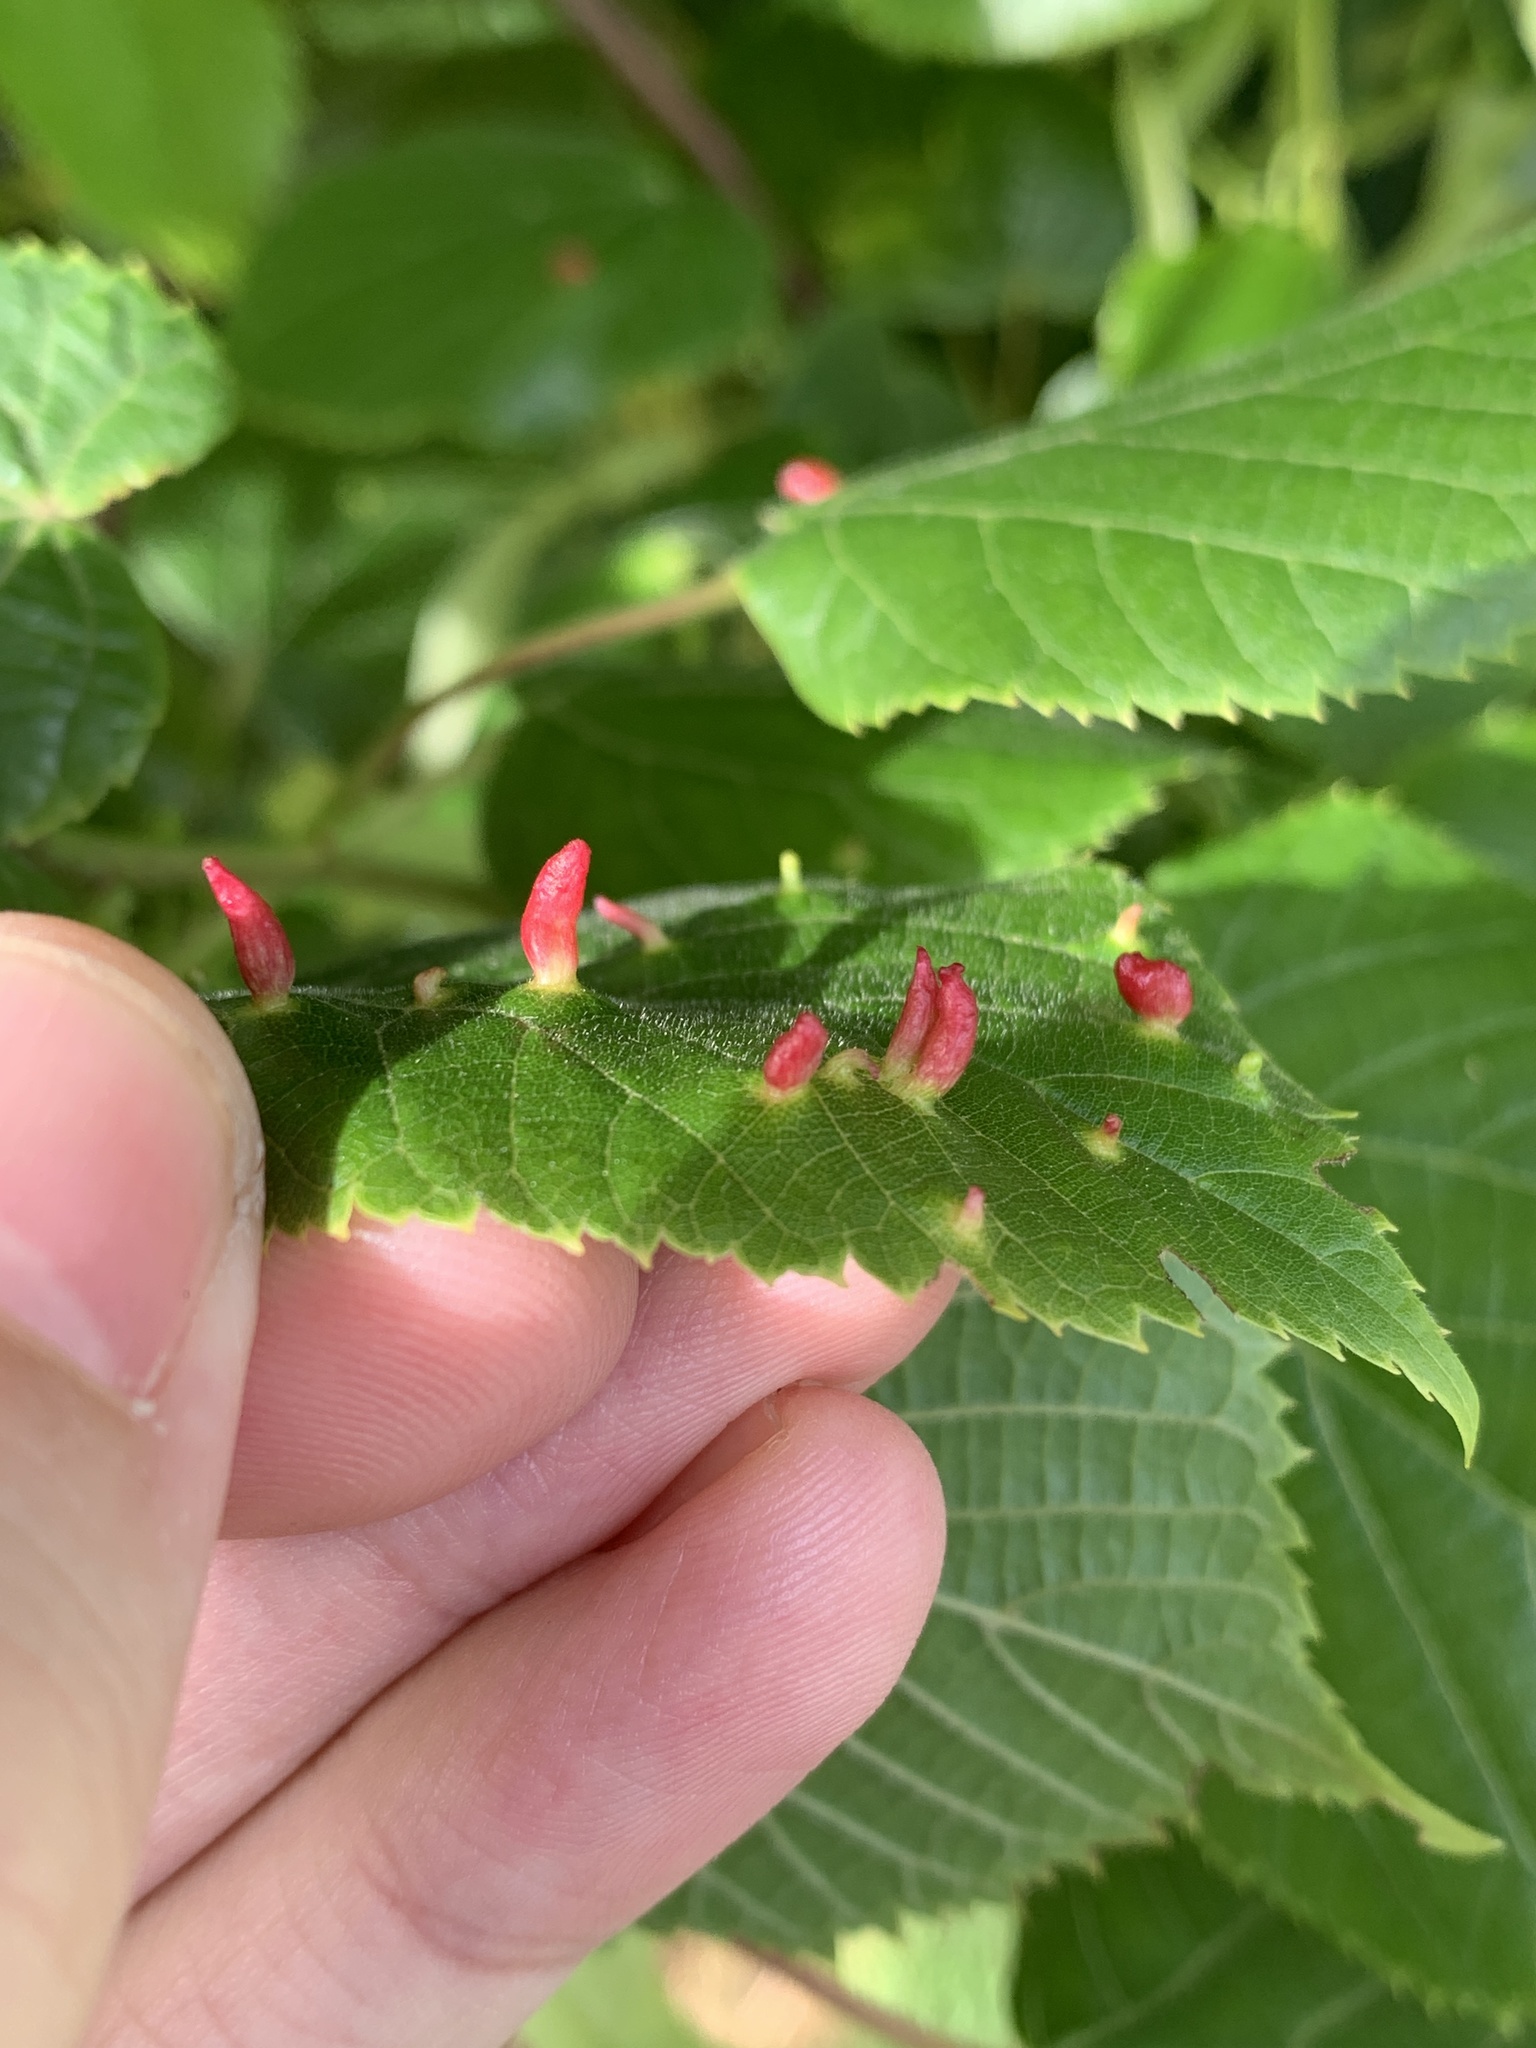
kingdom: Animalia
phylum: Arthropoda
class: Arachnida
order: Trombidiformes
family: Eriophyidae
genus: Eriophyes
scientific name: Eriophyes tiliae
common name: Red nail gall mite
